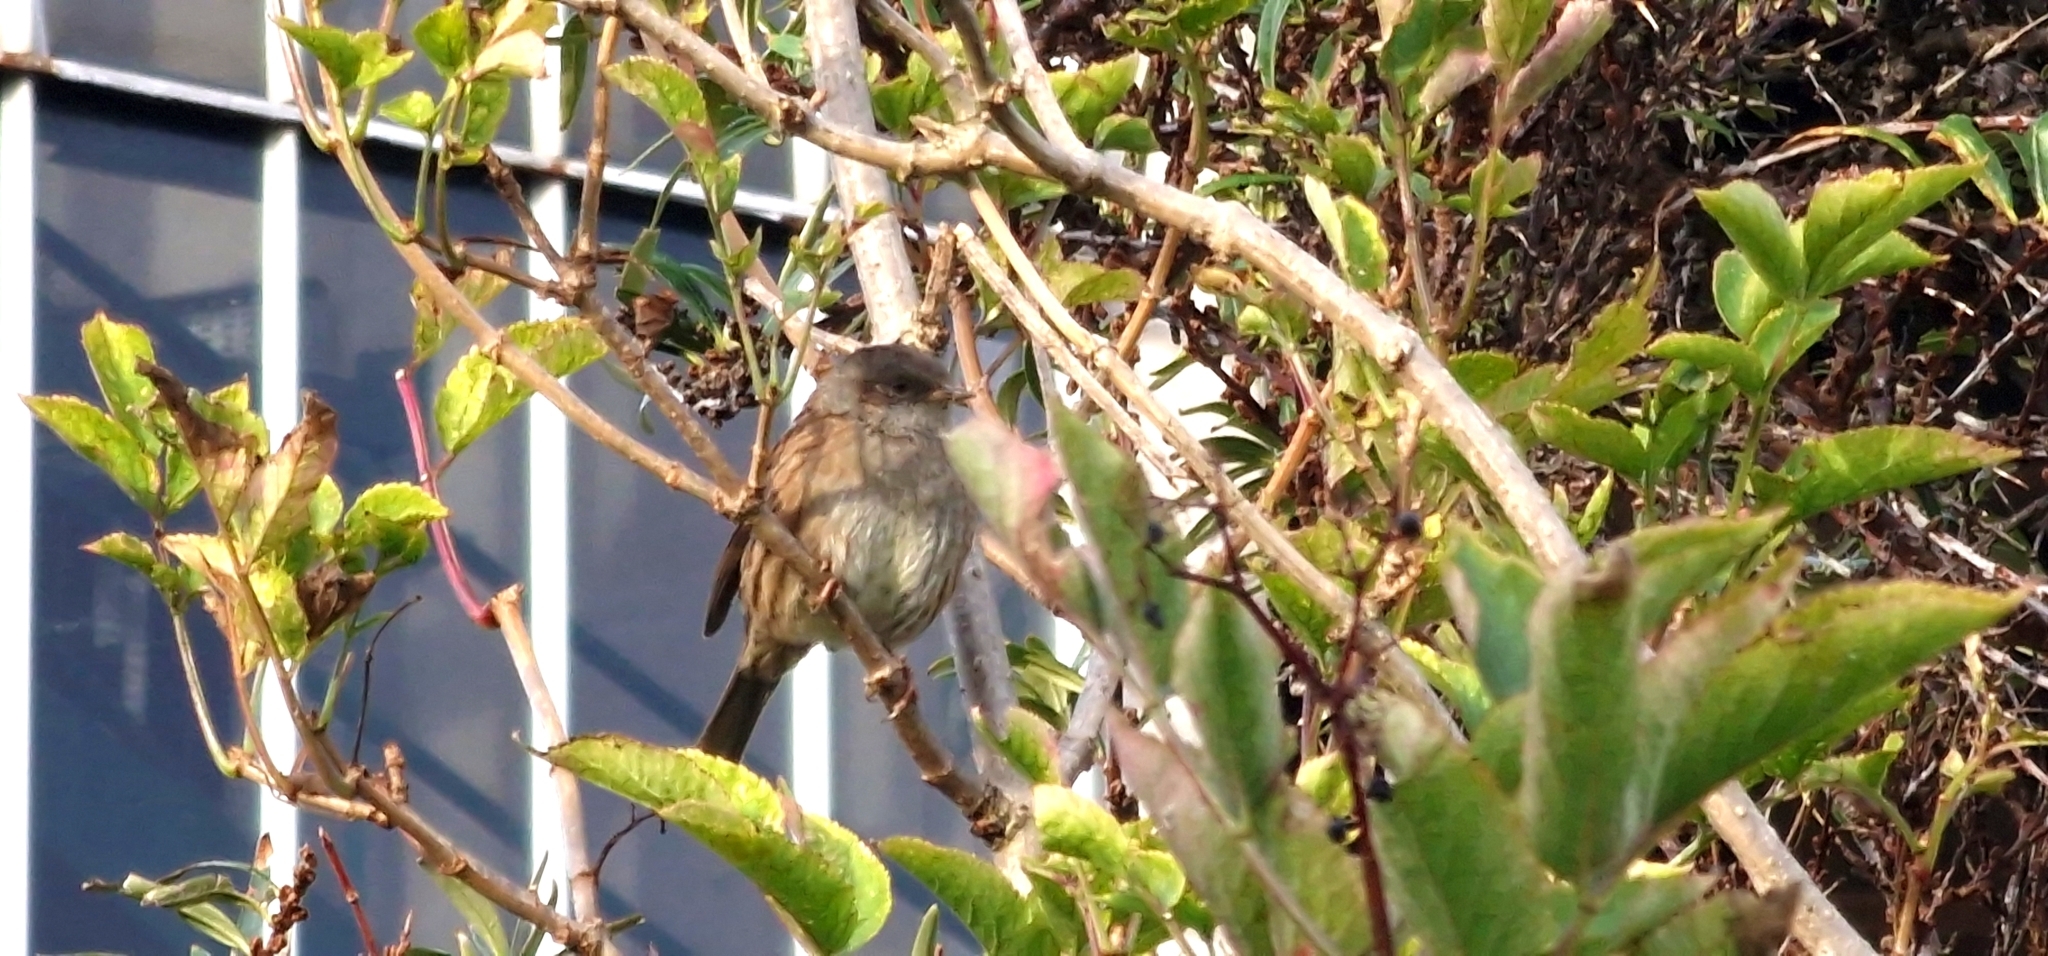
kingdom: Animalia
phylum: Chordata
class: Aves
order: Passeriformes
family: Prunellidae
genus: Prunella
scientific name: Prunella modularis
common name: Dunnock
